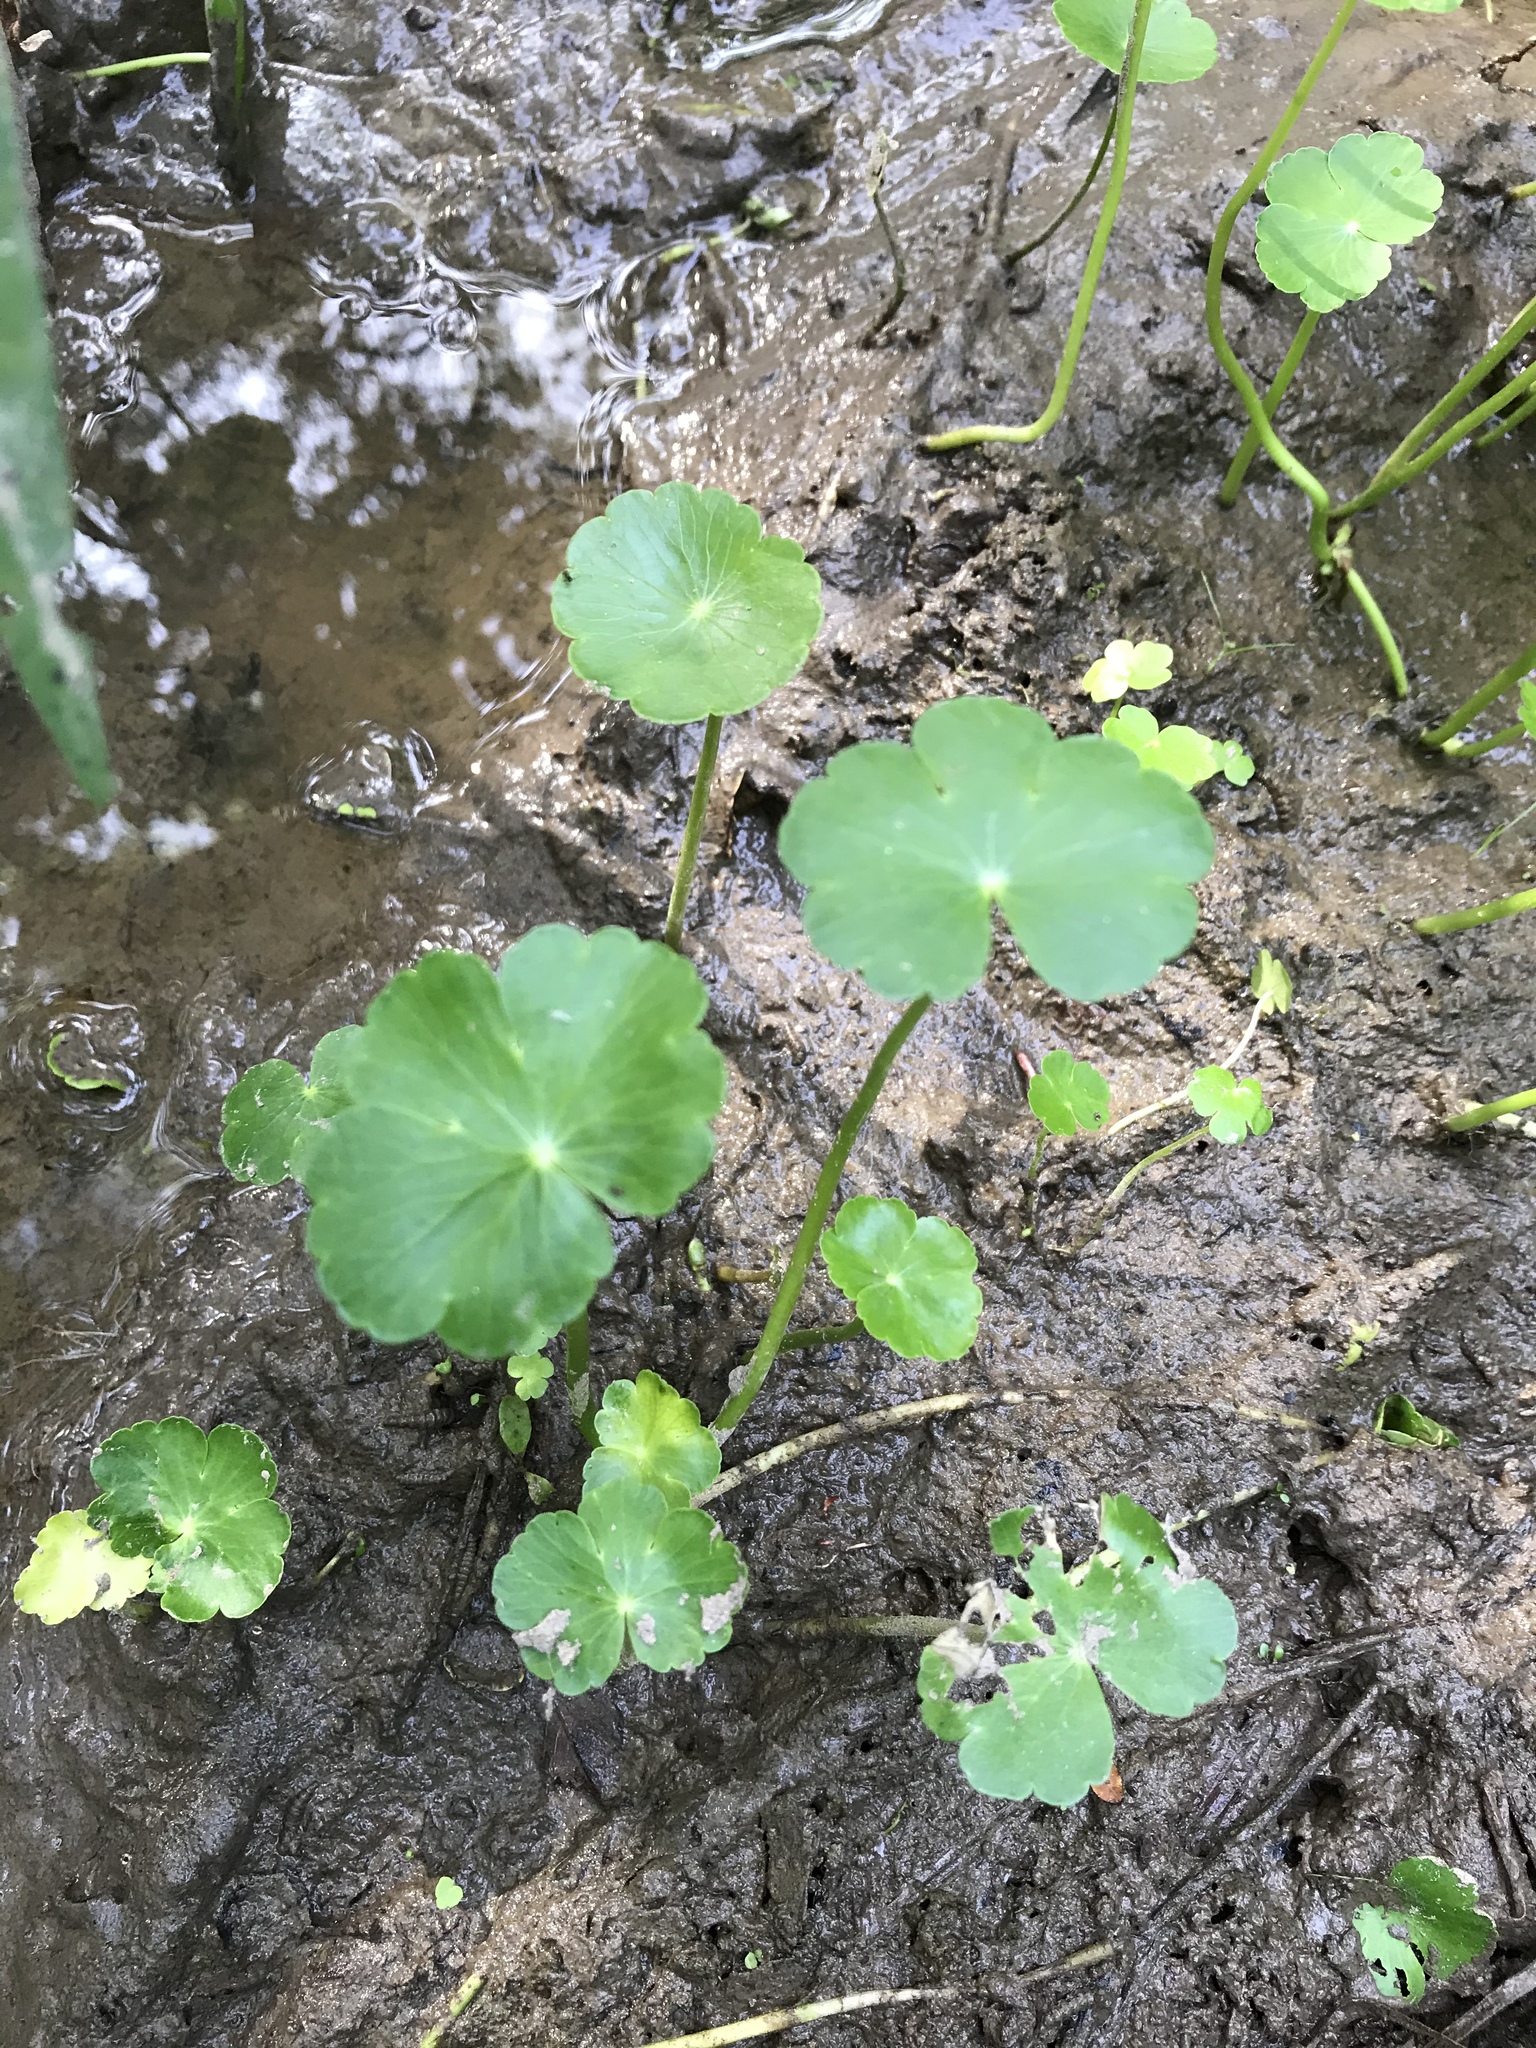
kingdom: Plantae
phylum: Tracheophyta
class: Magnoliopsida
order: Apiales
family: Araliaceae
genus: Hydrocotyle
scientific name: Hydrocotyle ranunculoides
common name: Floating pennywort
